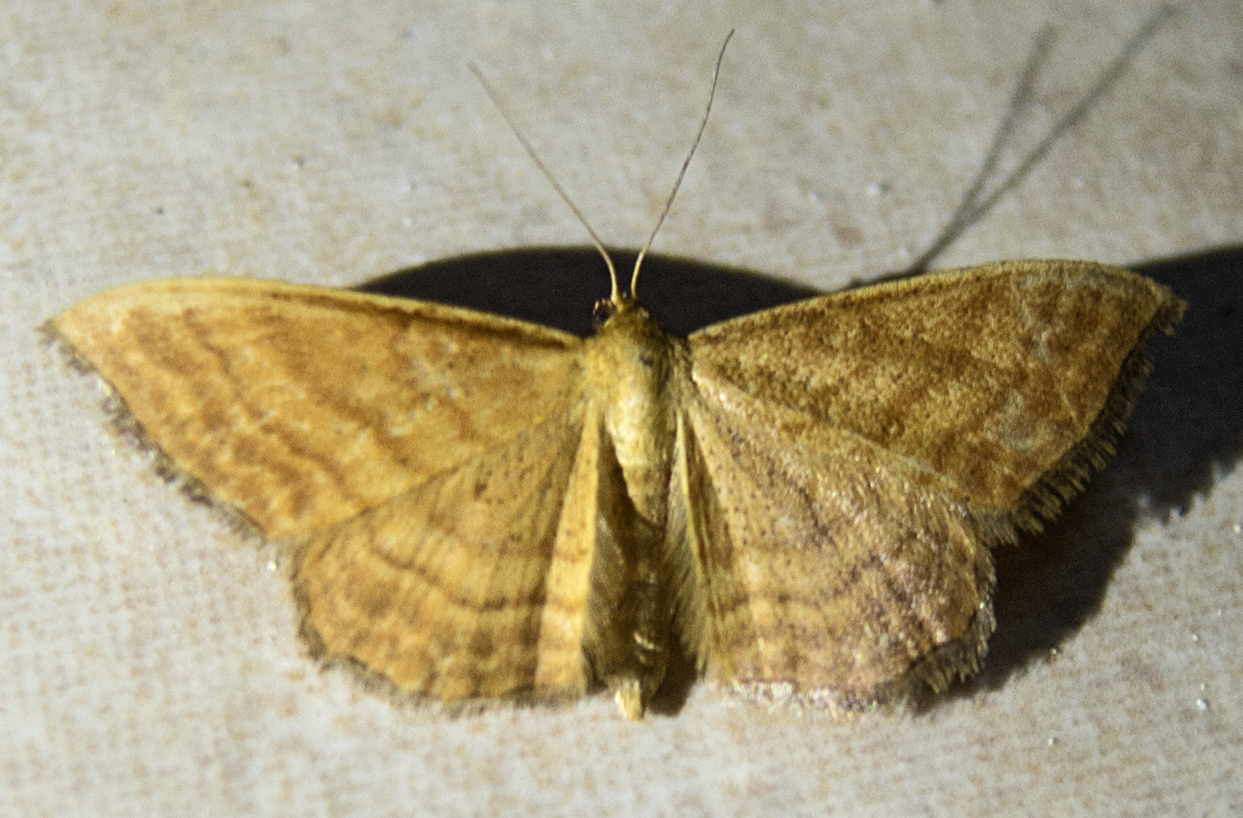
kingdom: Animalia
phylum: Arthropoda
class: Insecta
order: Lepidoptera
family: Geometridae
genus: Idaea
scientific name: Idaea ochrata
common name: Bright wave
